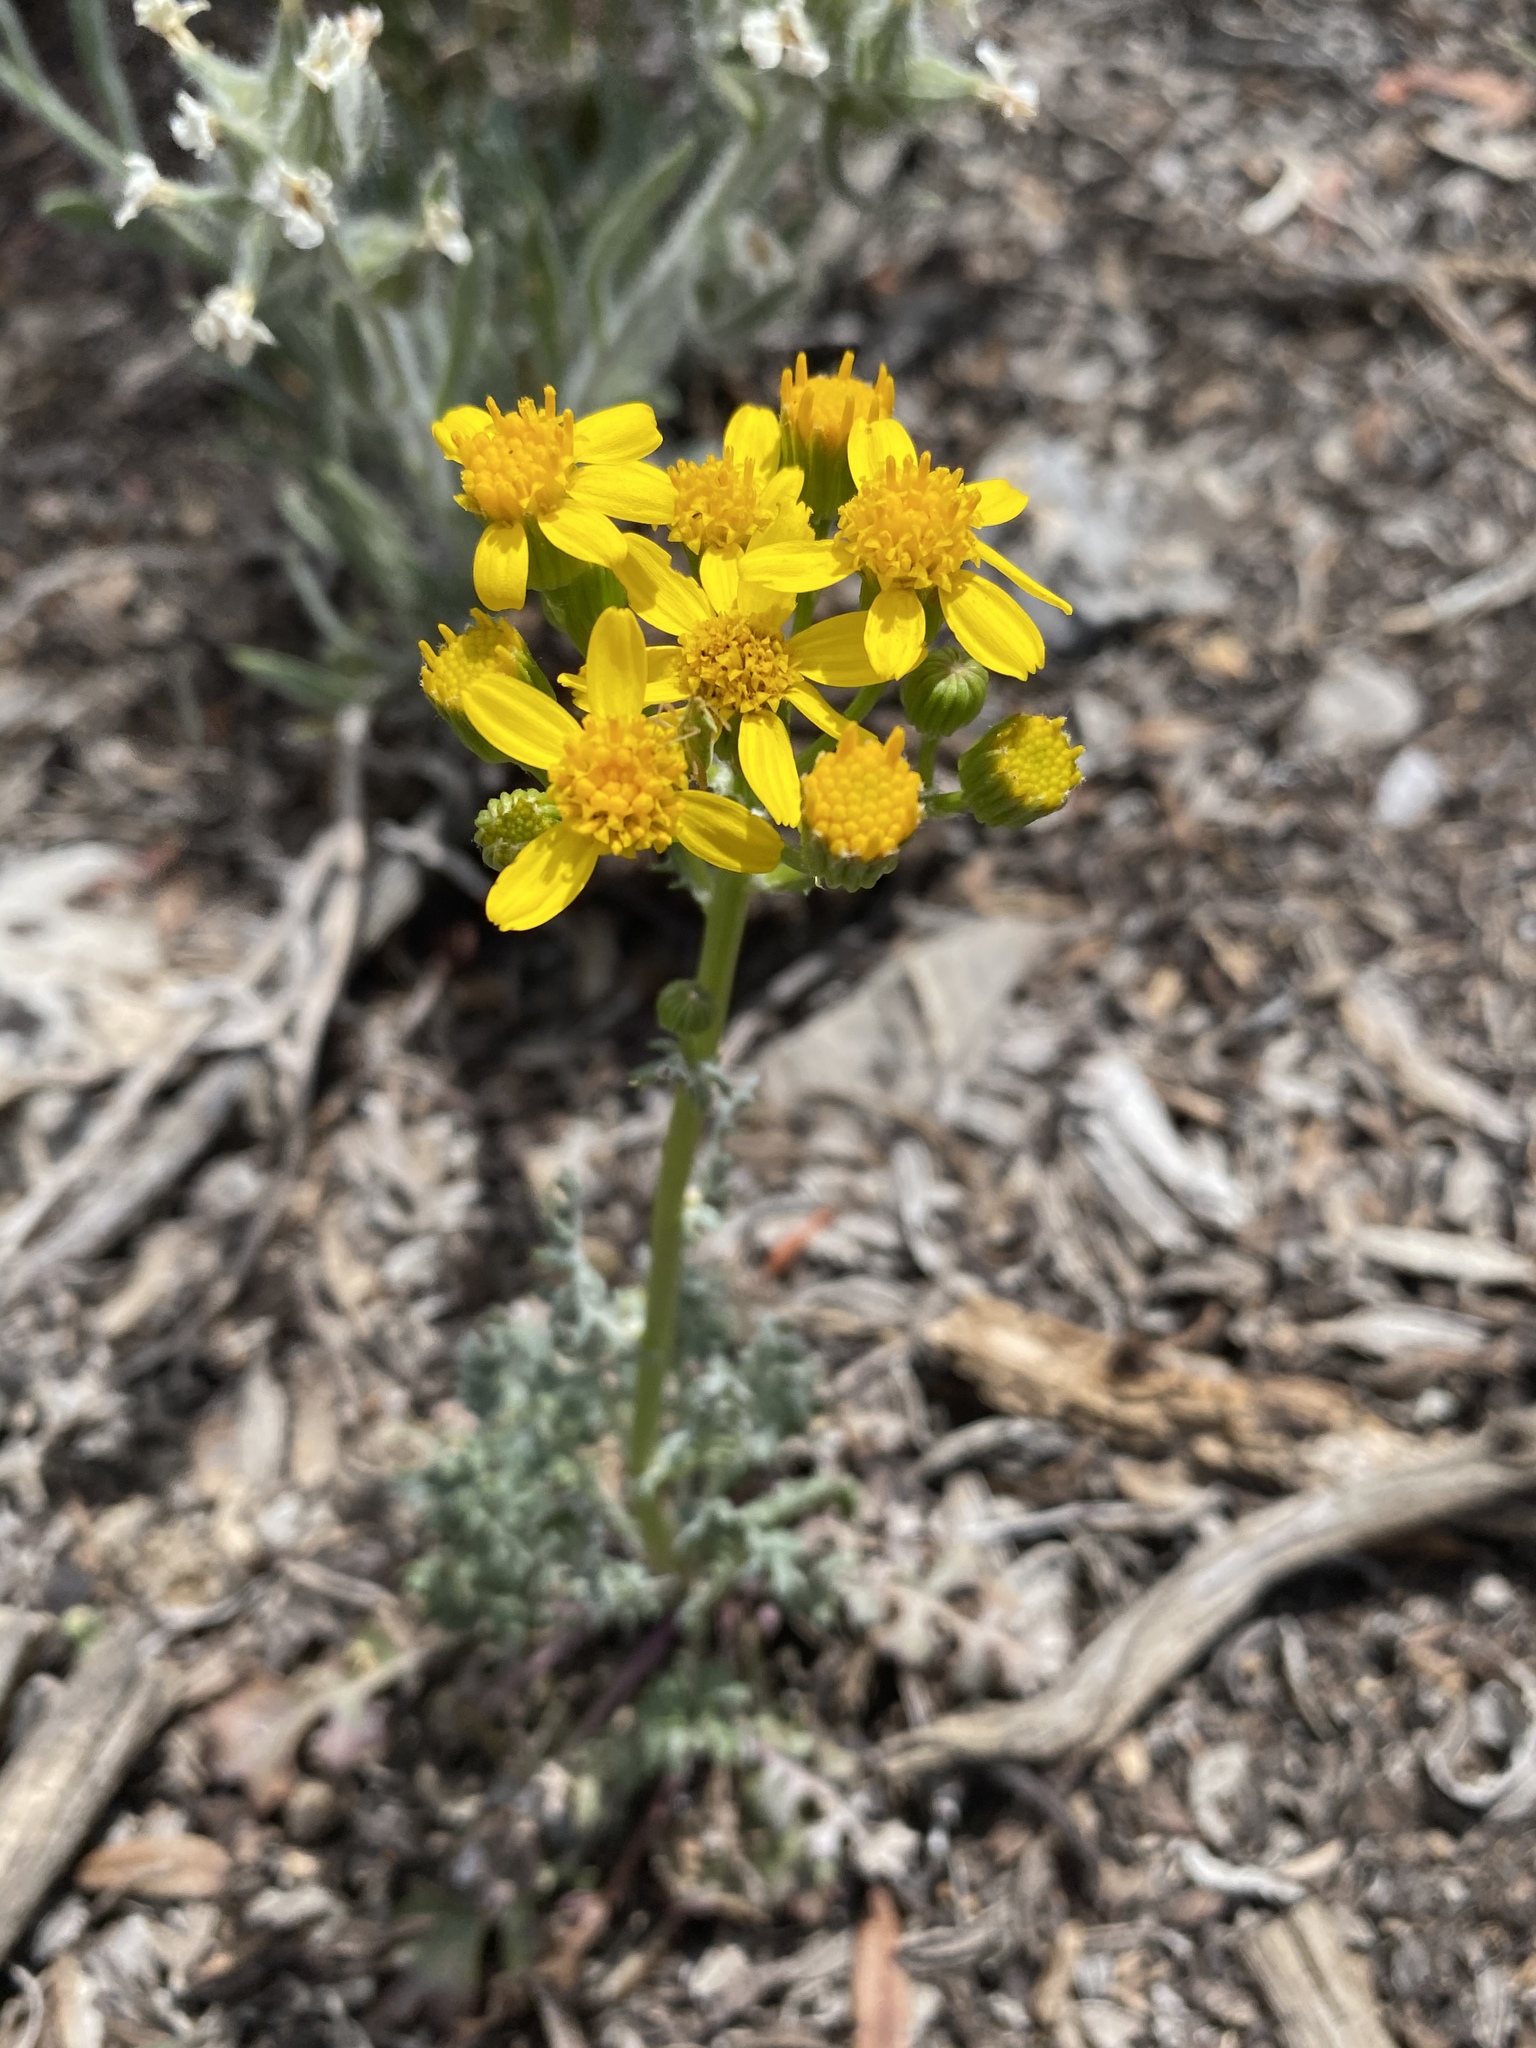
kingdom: Plantae
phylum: Tracheophyta
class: Magnoliopsida
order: Asterales
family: Asteraceae
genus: Packera
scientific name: Packera multilobata
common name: Lobe-leaf groundsel
